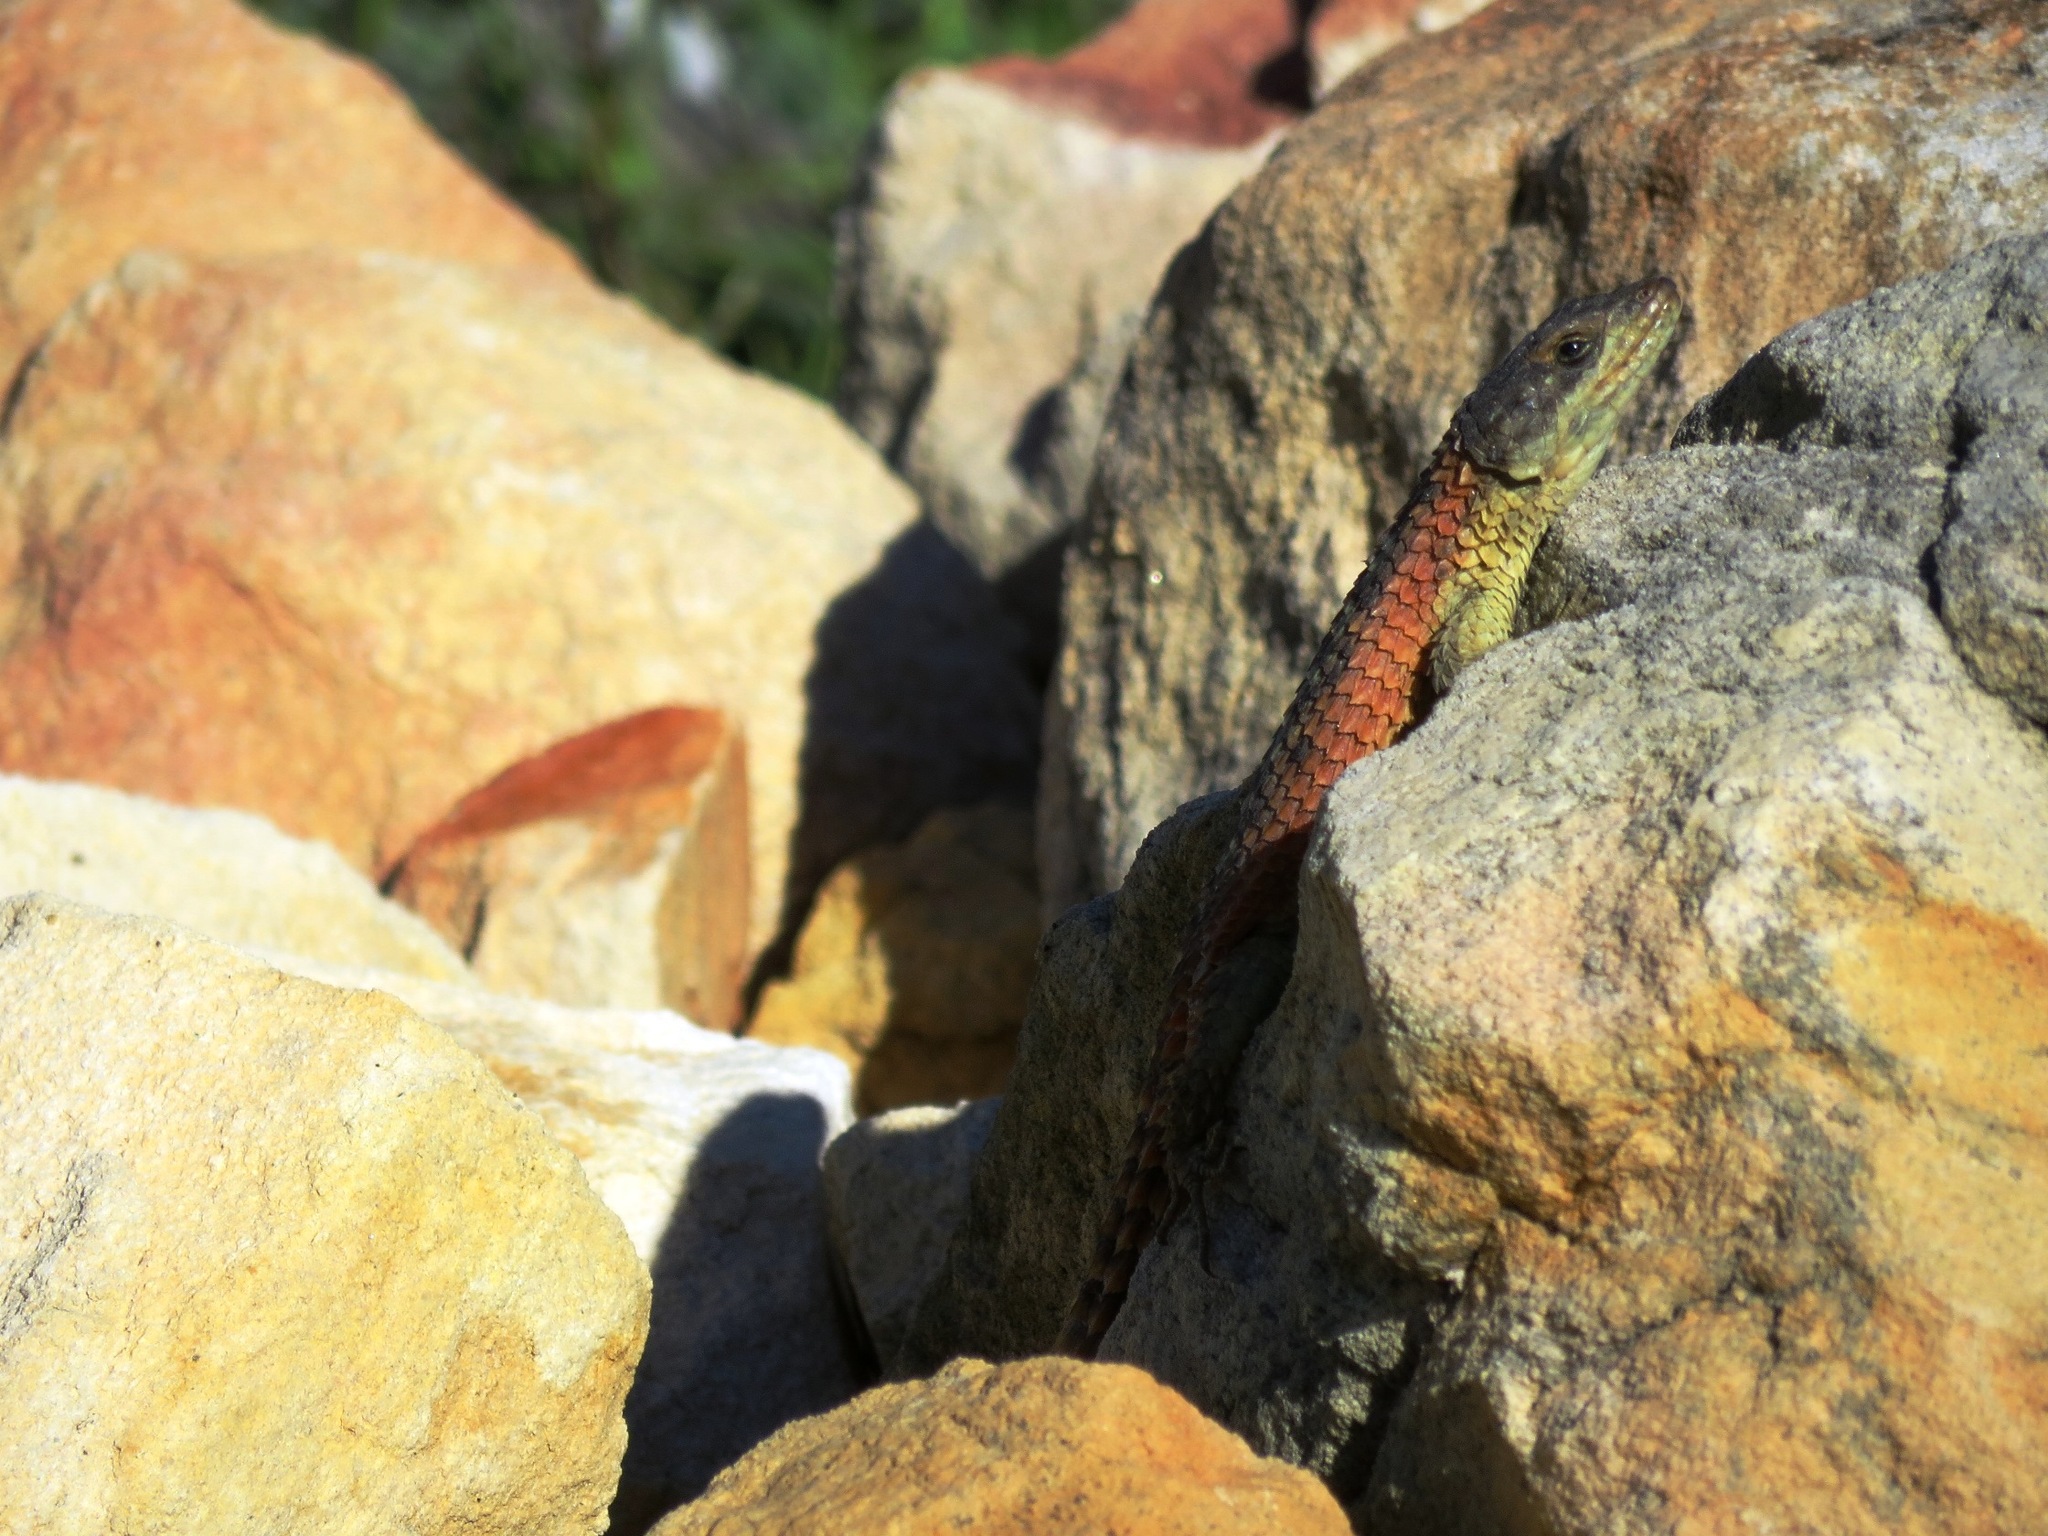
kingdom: Animalia
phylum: Chordata
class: Squamata
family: Cordylidae
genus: Cordylus
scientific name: Cordylus cordylus
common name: Cape girdled lizard
